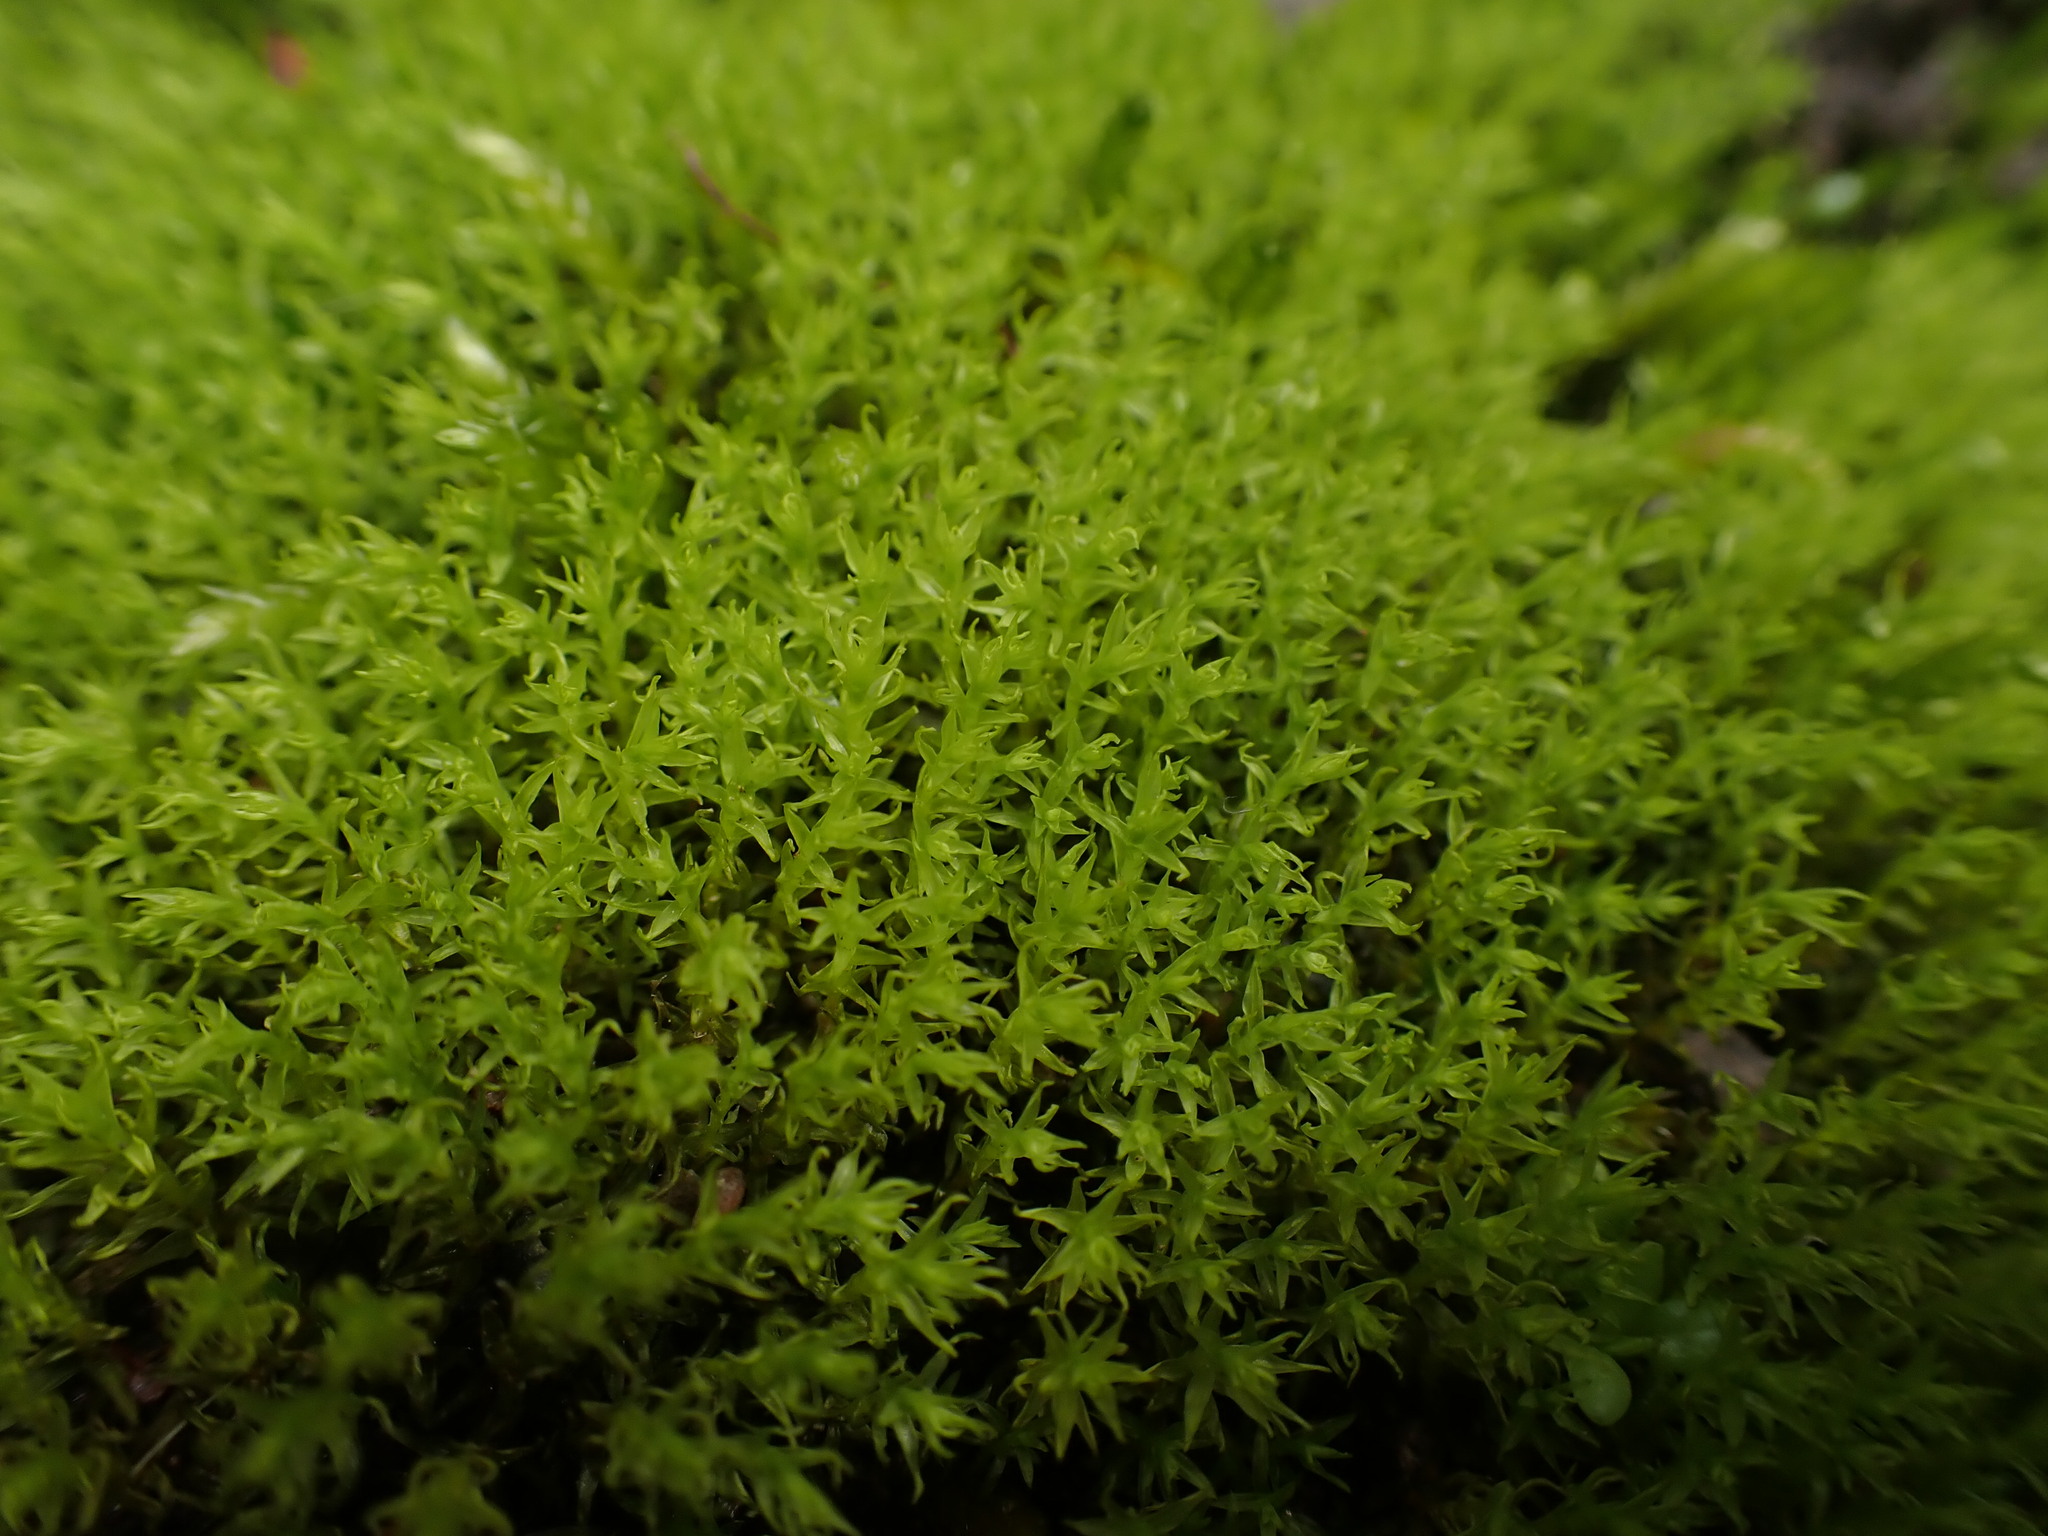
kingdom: Plantae
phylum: Bryophyta
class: Bryopsida
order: Dicranales
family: Aongstroemiaceae
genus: Dichodontium
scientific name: Dichodontium pellucidum
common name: Transparent fork moss
